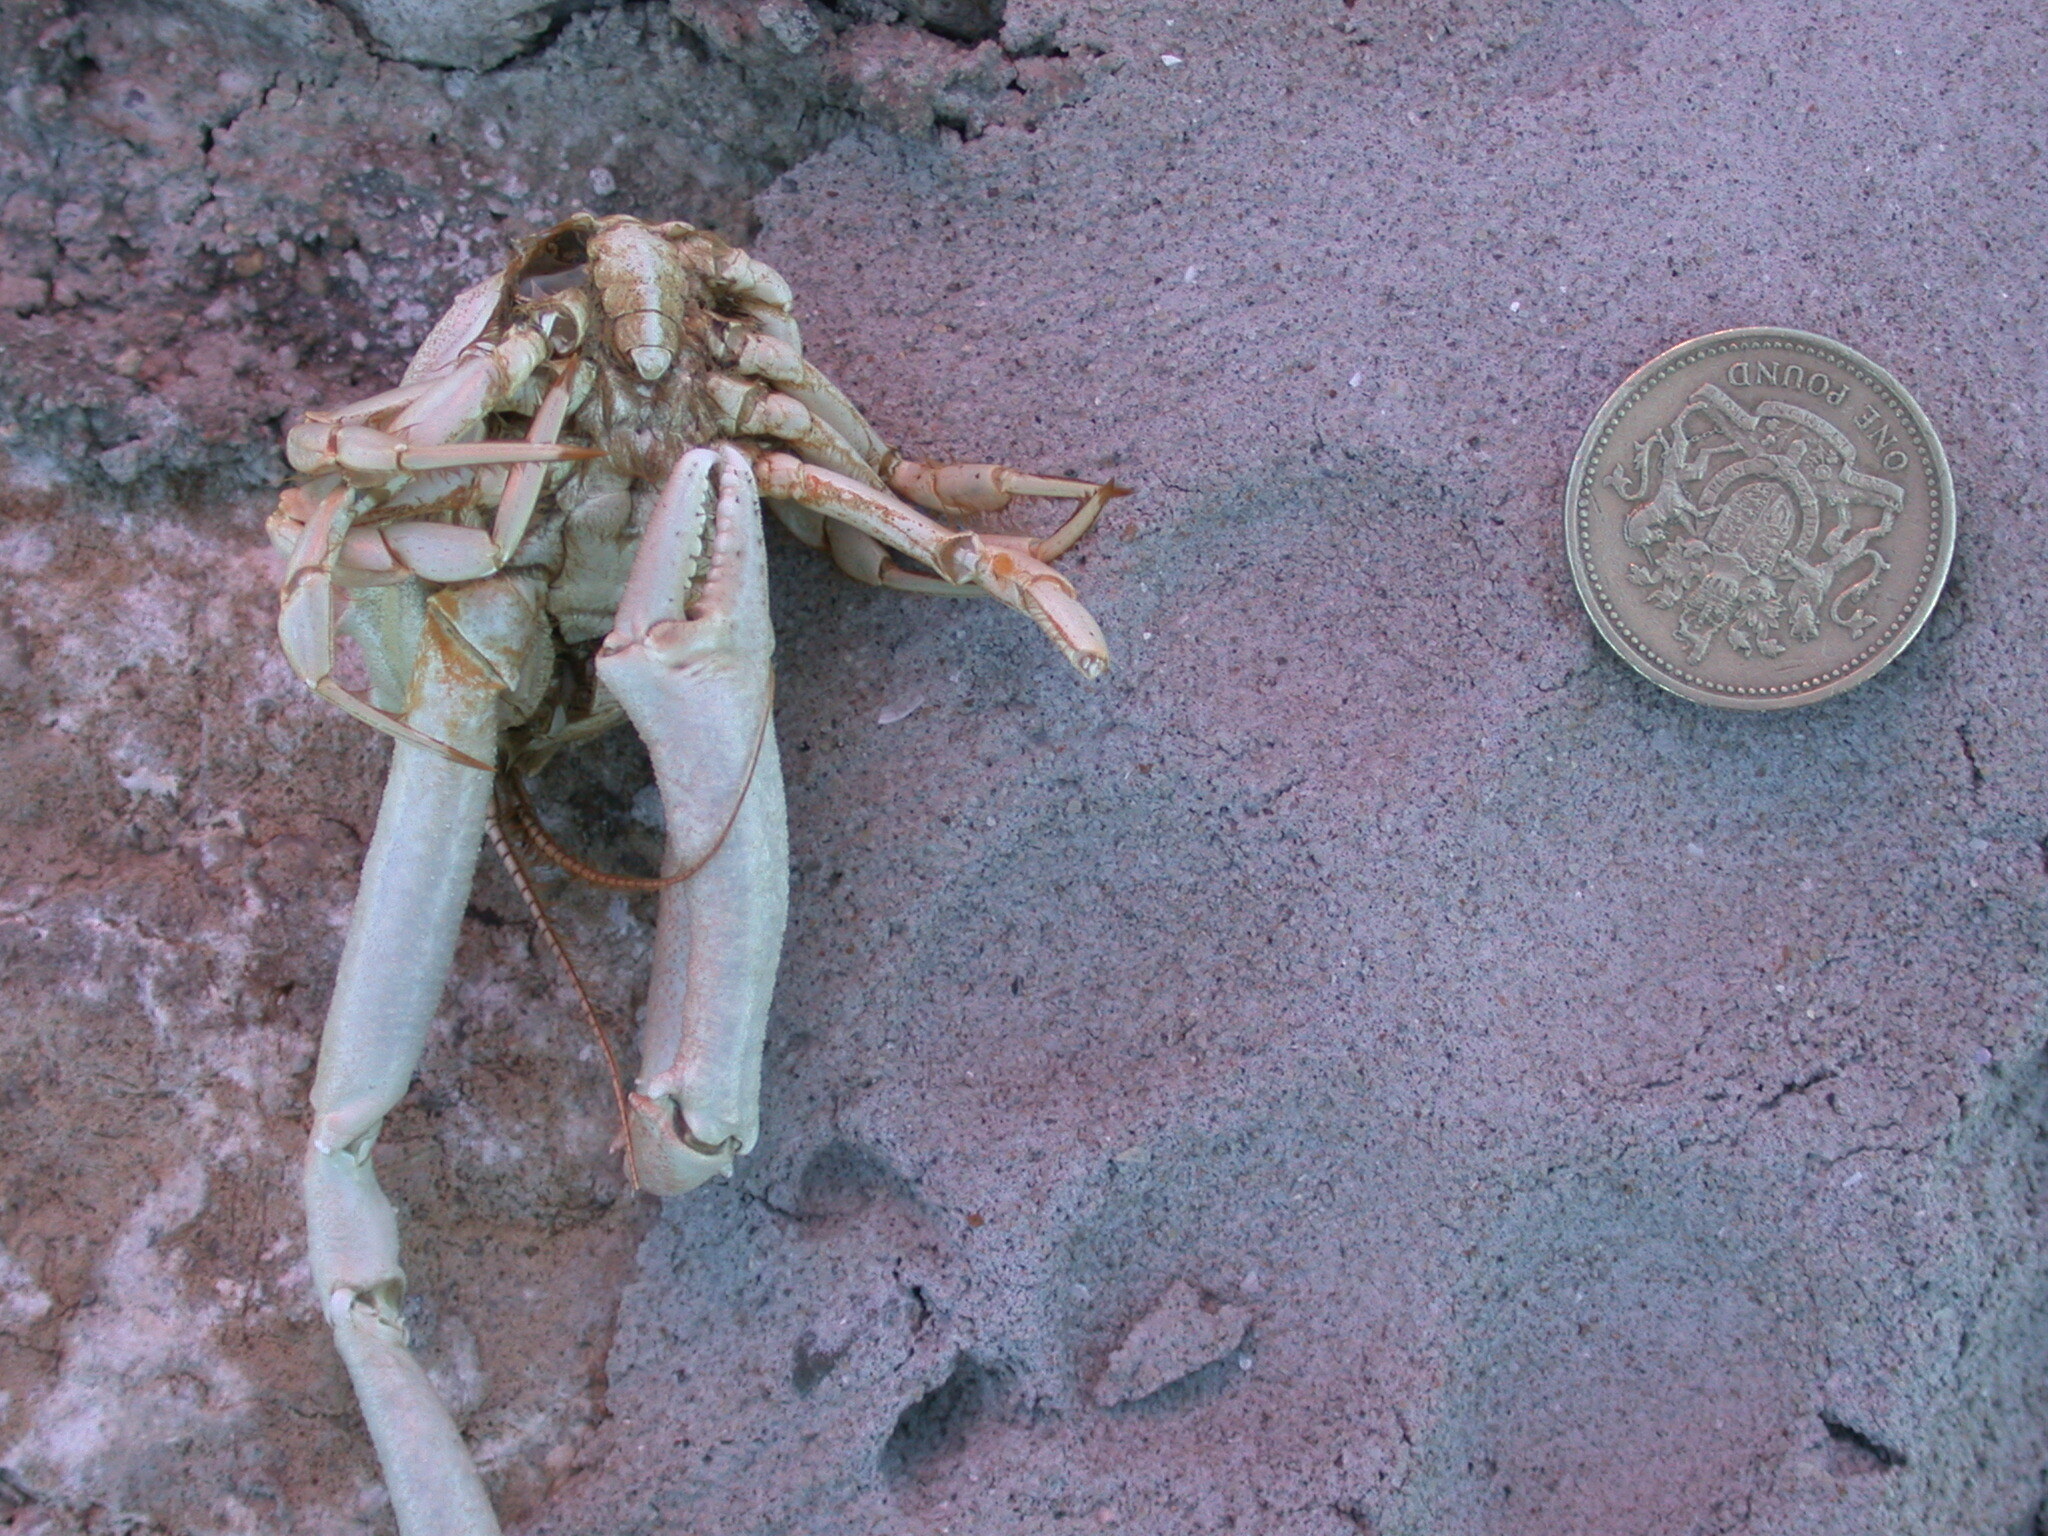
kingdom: Animalia
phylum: Arthropoda
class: Malacostraca
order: Decapoda
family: Corystidae
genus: Corystes
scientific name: Corystes cassivelaunus
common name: Masked crab
